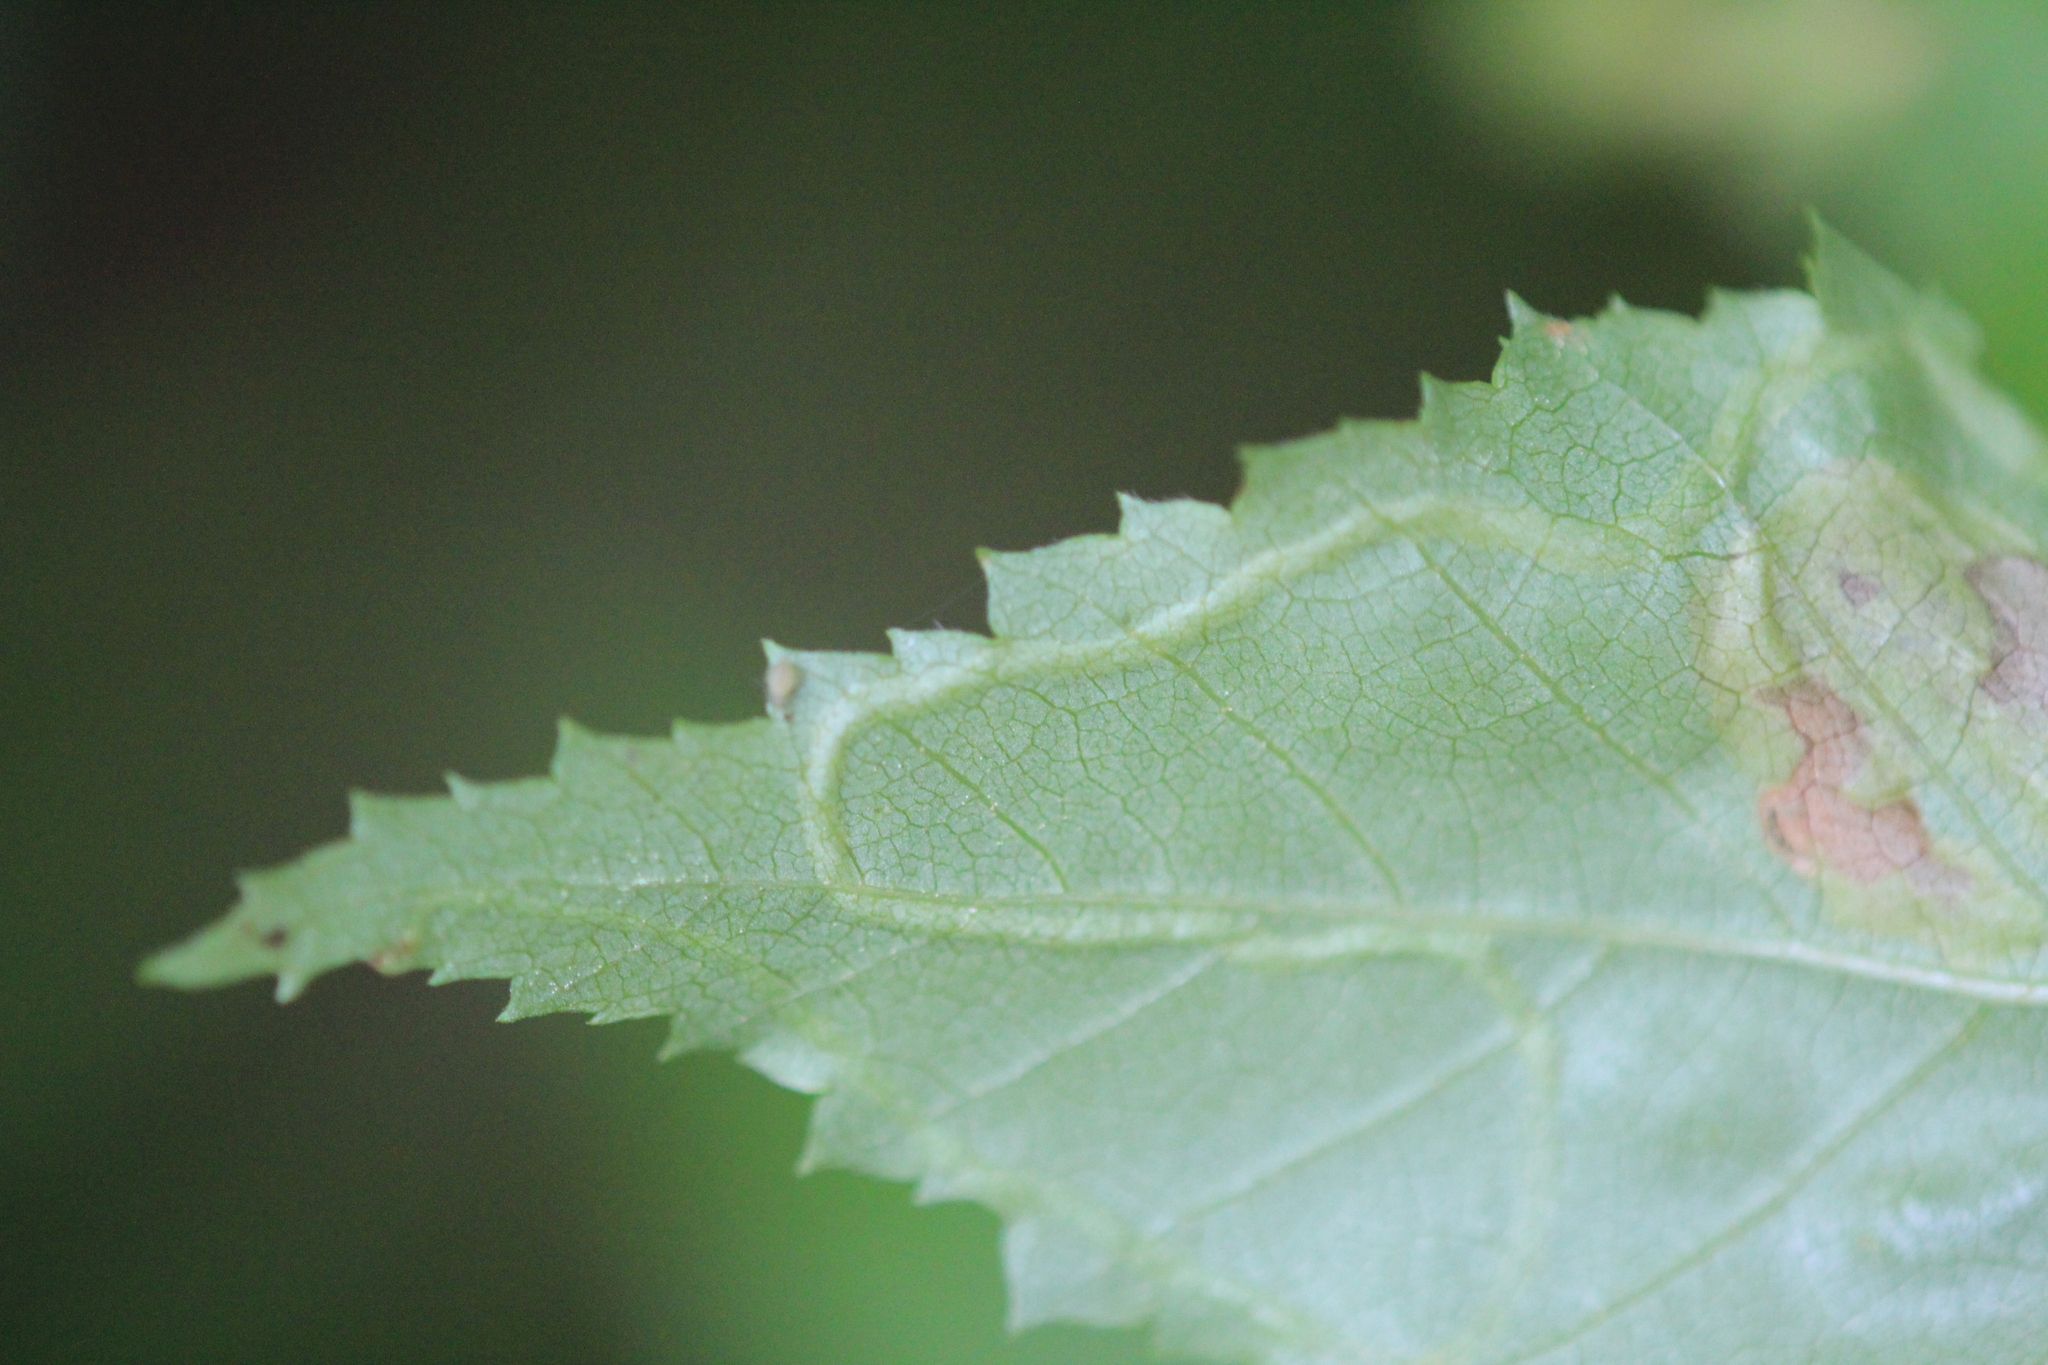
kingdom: Animalia
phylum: Arthropoda
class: Insecta
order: Diptera
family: Agromyzidae
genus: Agromyza
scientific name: Agromyza alnibetulae
